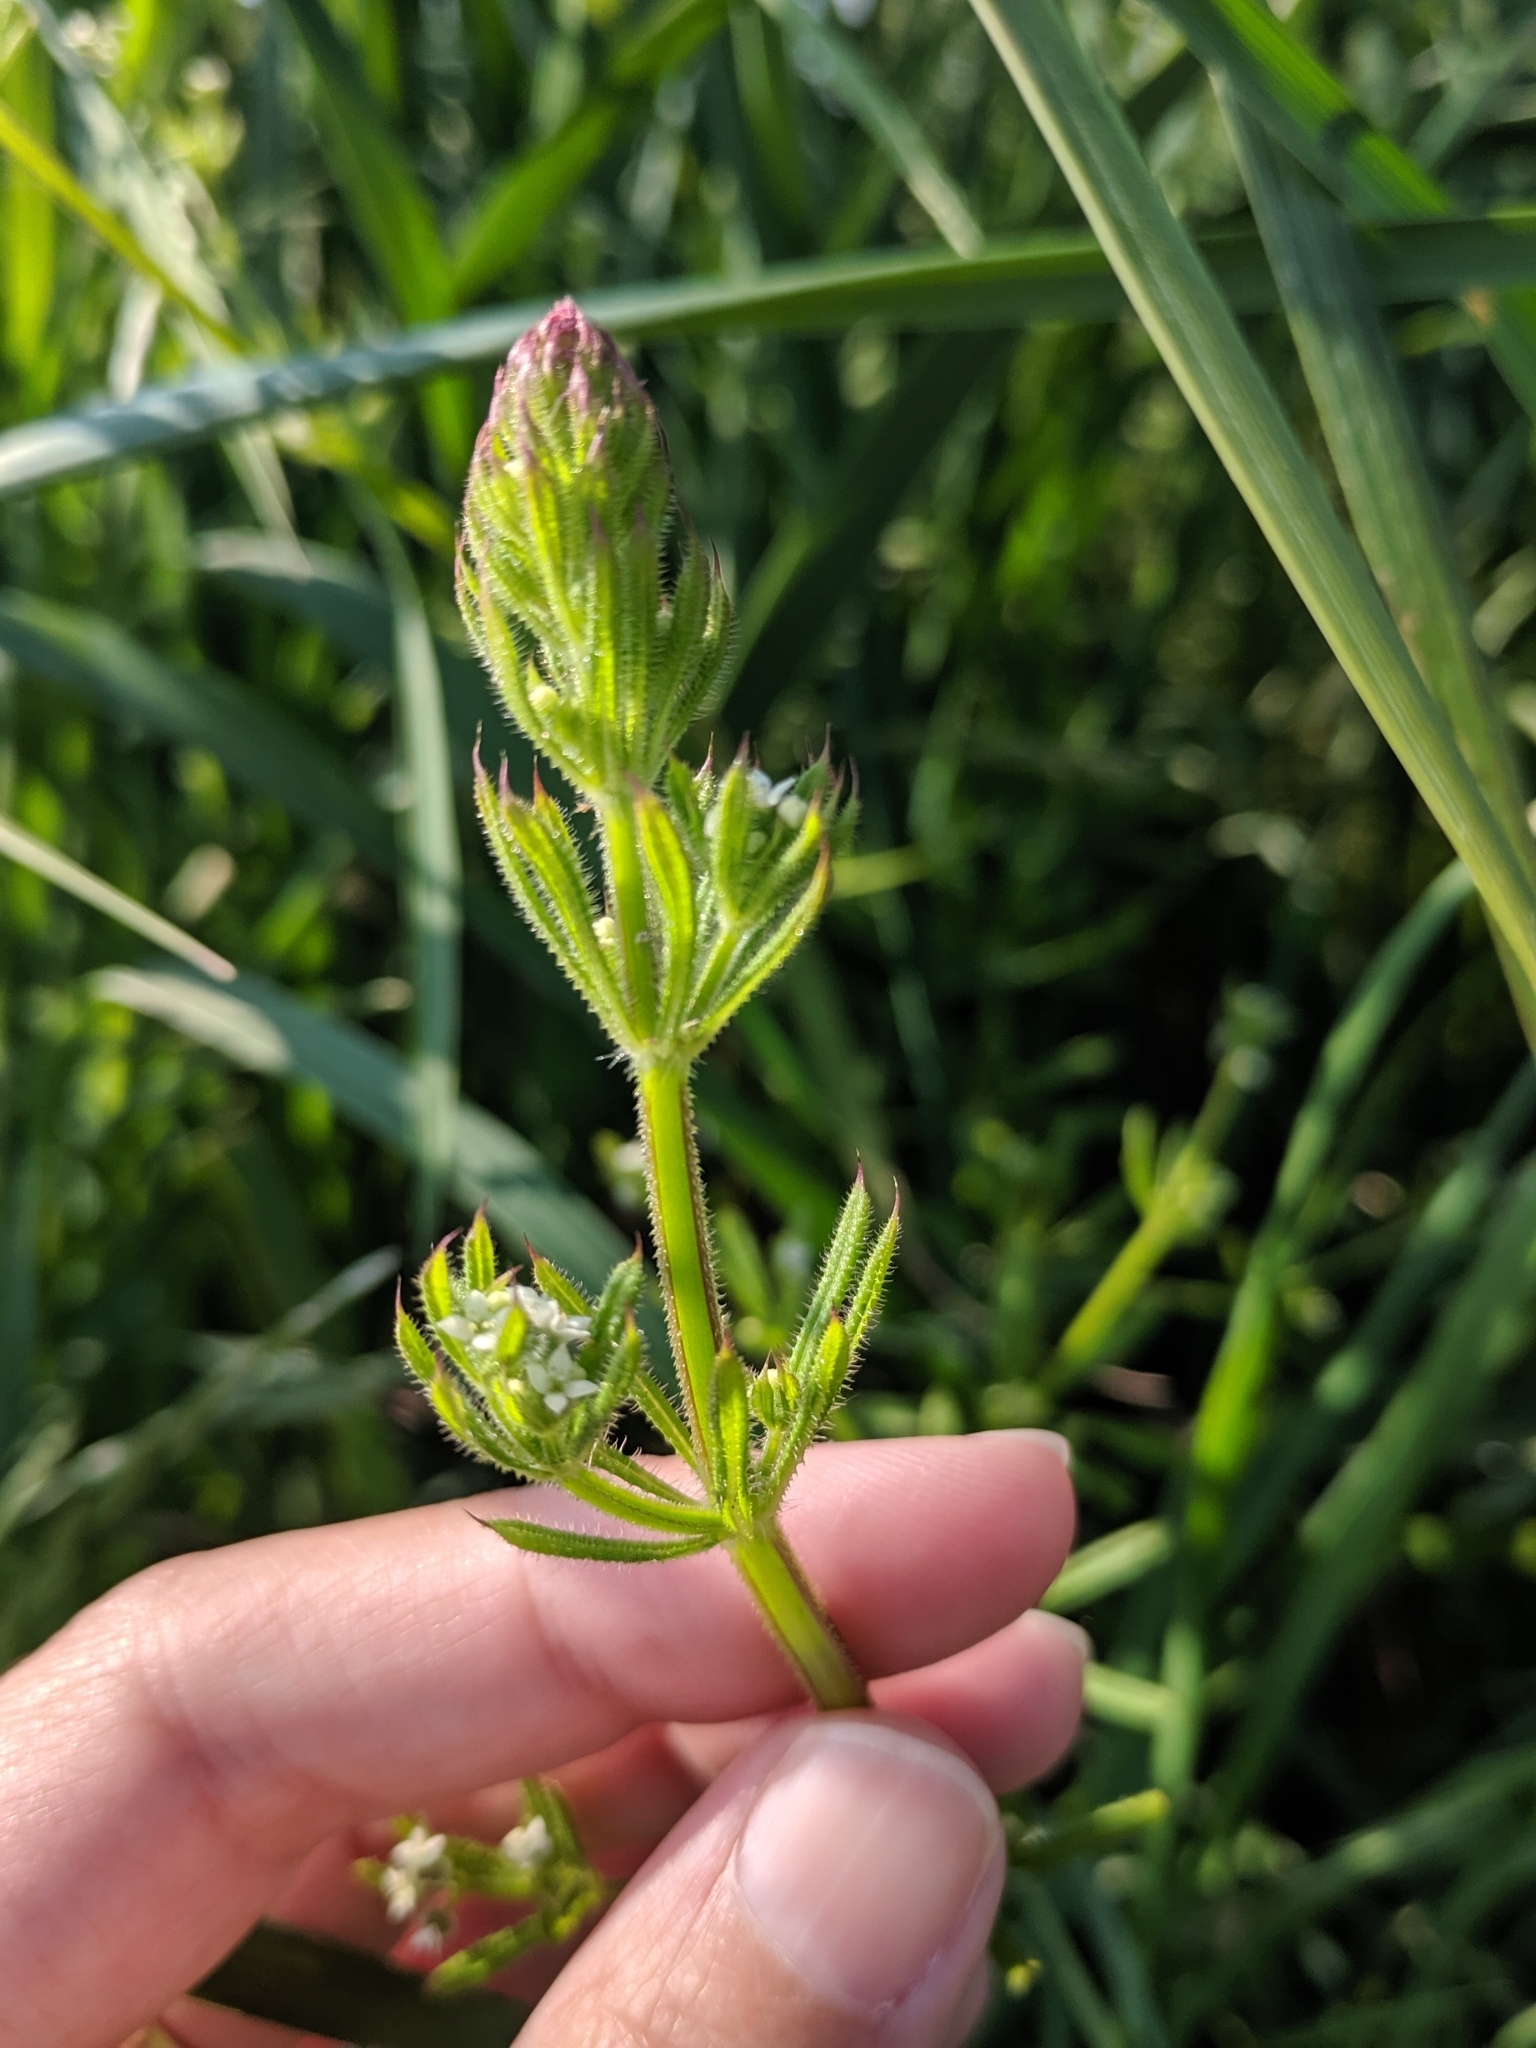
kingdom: Plantae
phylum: Tracheophyta
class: Magnoliopsida
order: Gentianales
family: Rubiaceae
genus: Galium
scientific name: Galium aparine
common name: Cleavers
